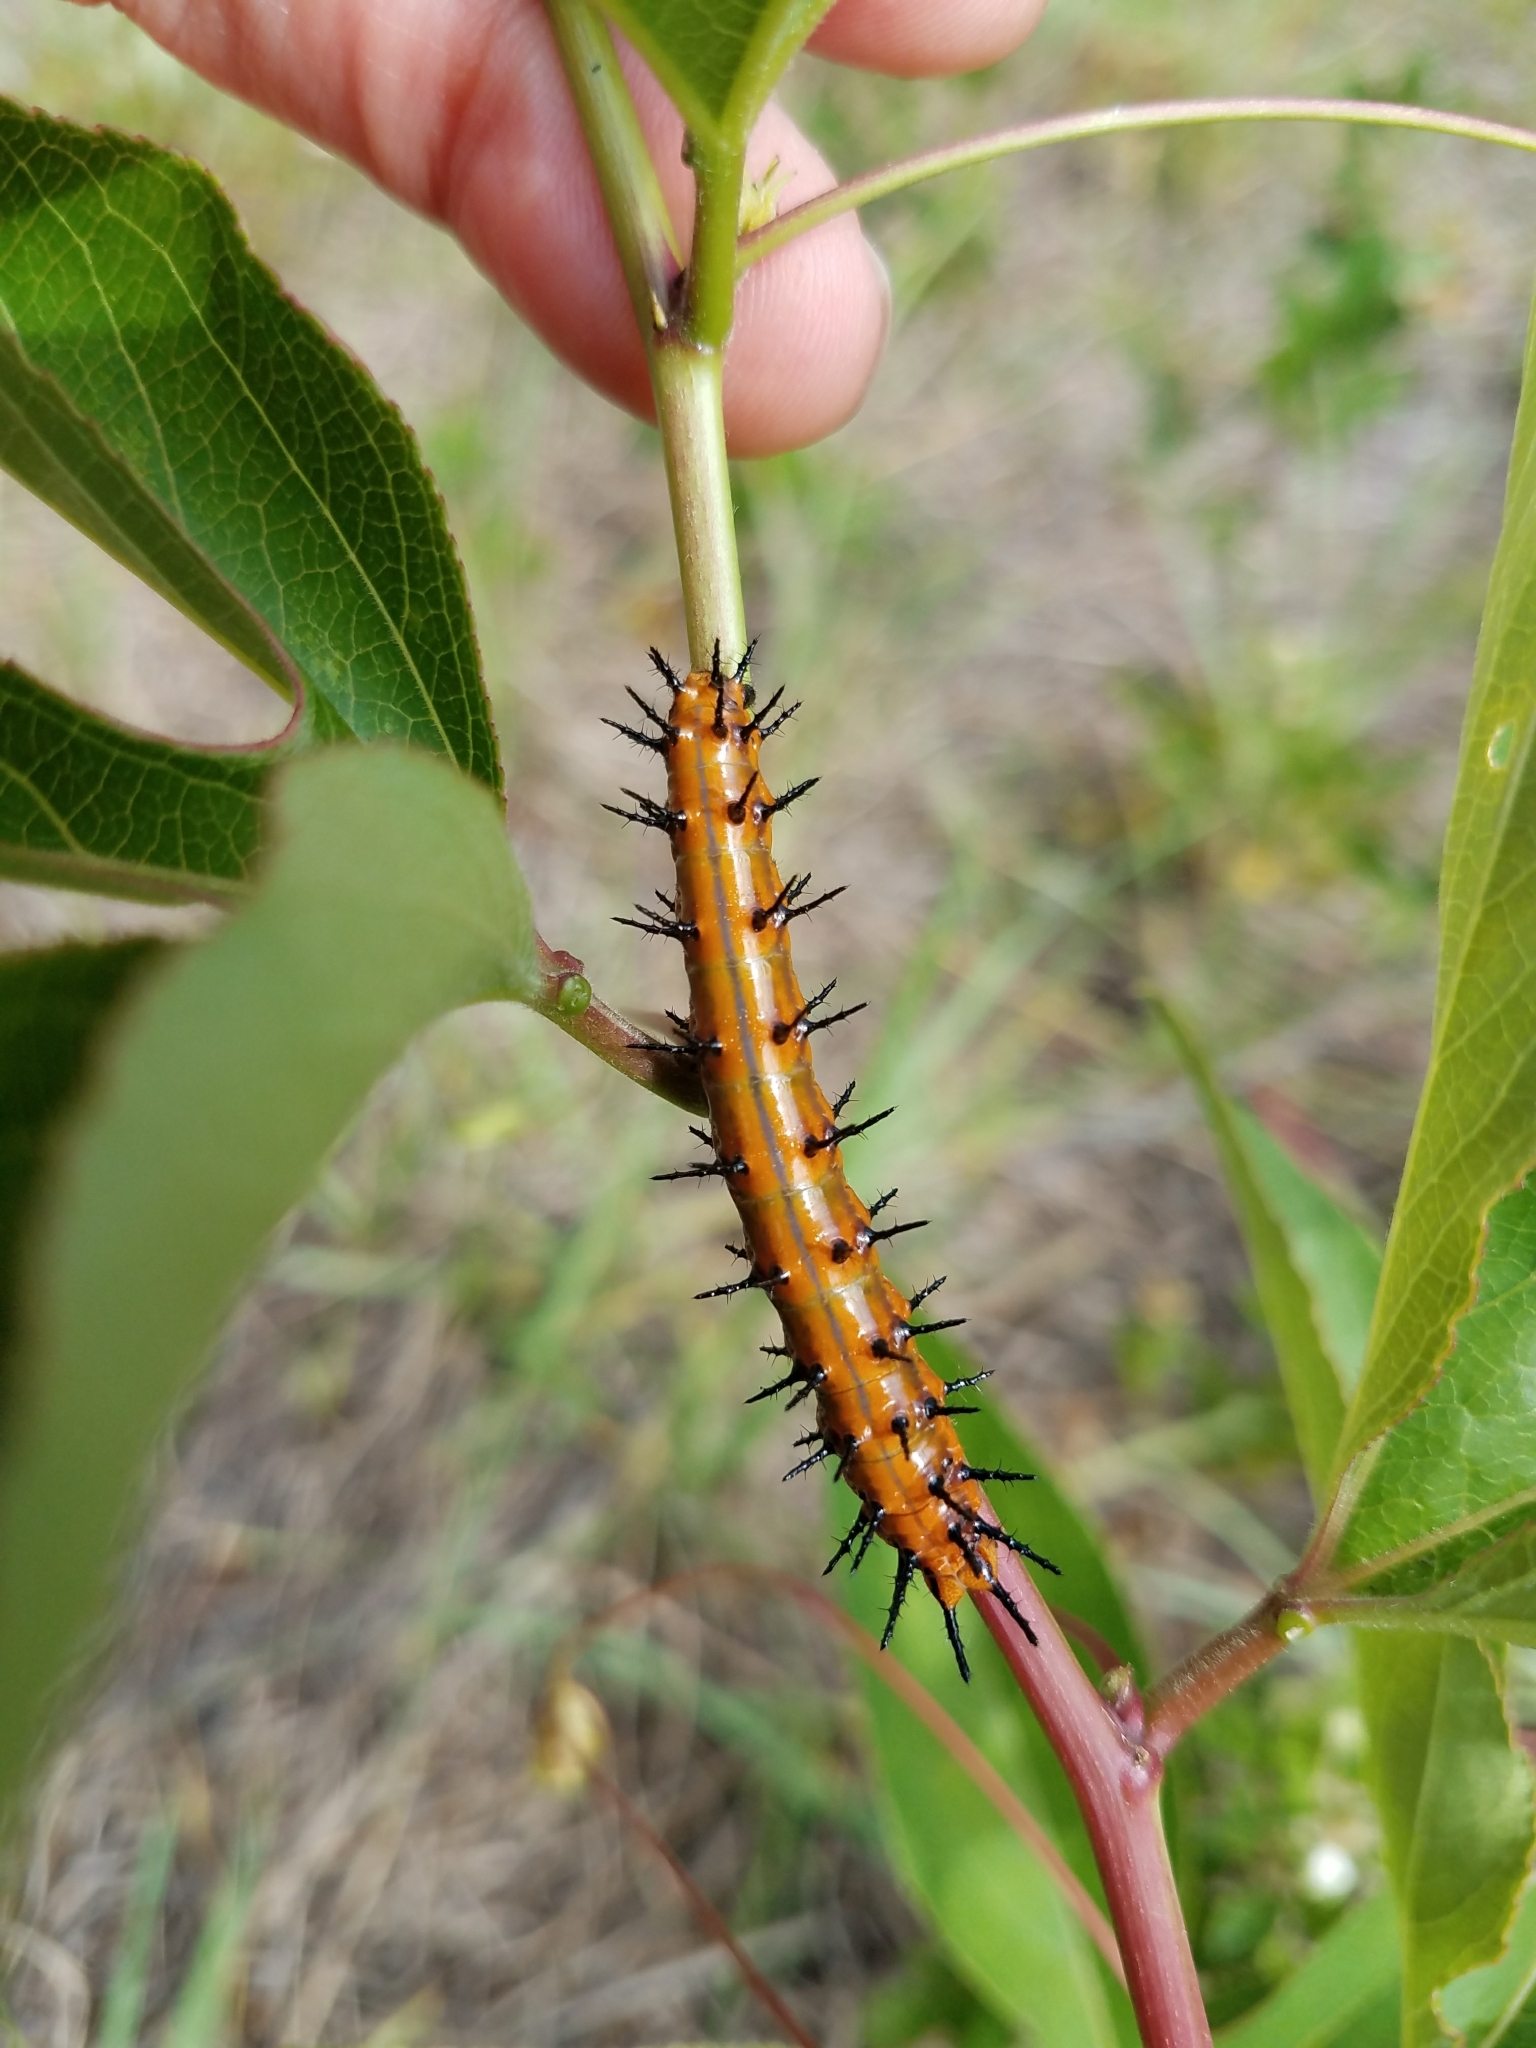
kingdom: Animalia
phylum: Arthropoda
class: Insecta
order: Lepidoptera
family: Nymphalidae
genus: Dione
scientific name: Dione vanillae
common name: Gulf fritillary
